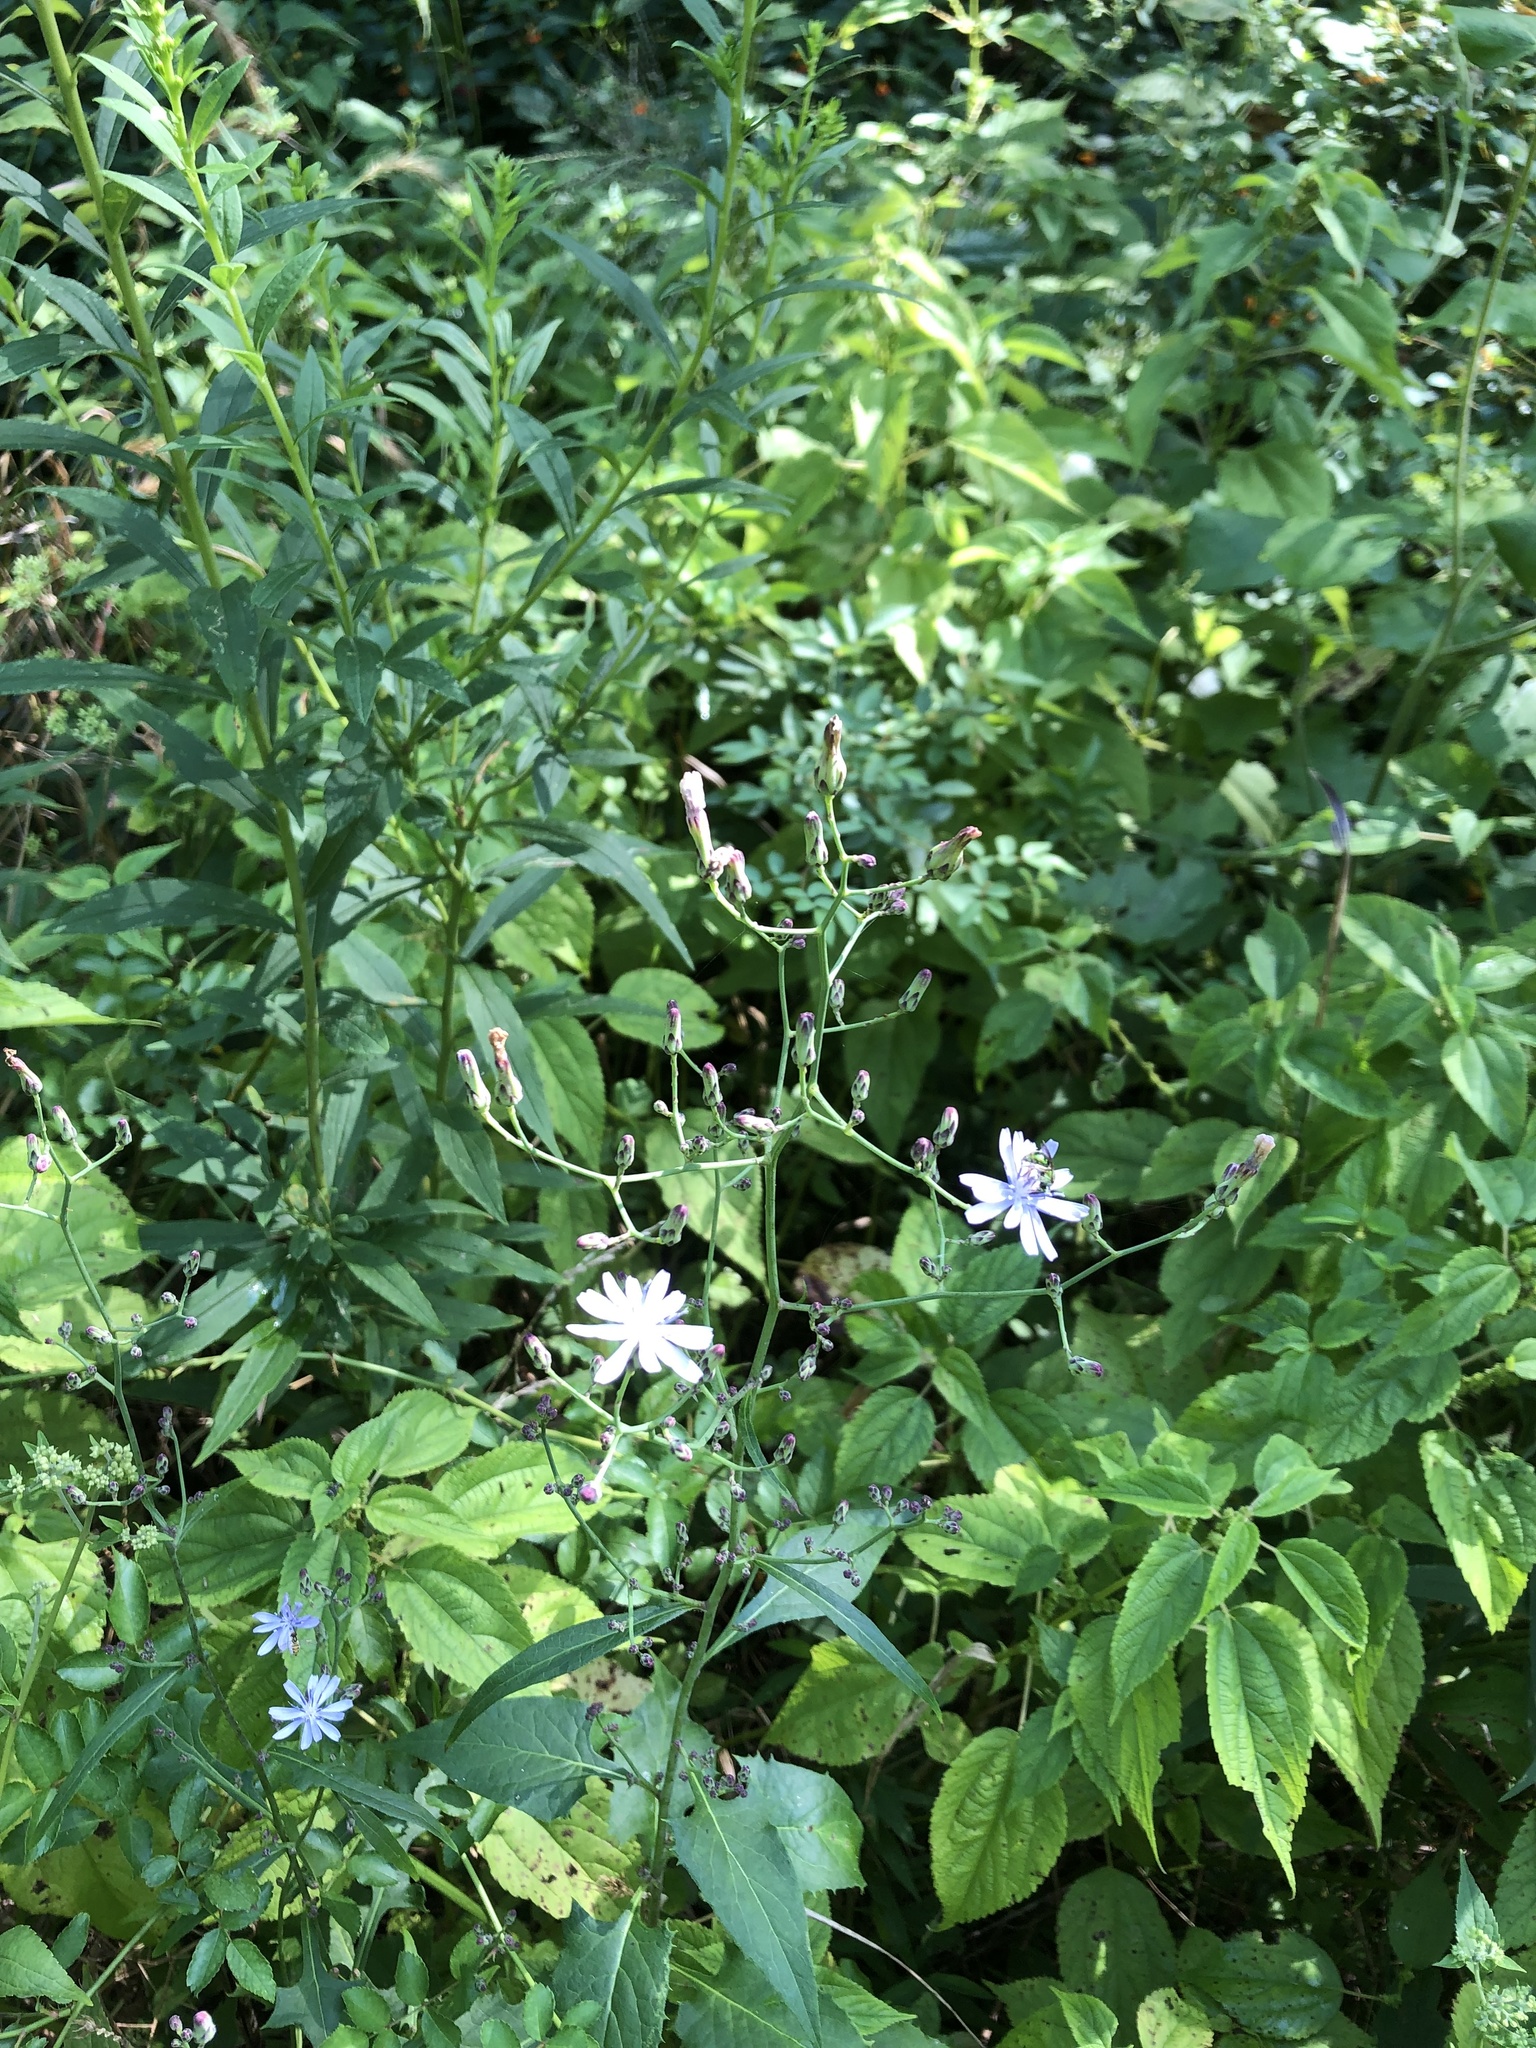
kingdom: Plantae
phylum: Tracheophyta
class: Magnoliopsida
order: Asterales
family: Asteraceae
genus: Lactuca
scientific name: Lactuca floridana
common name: Woodland lettuce
